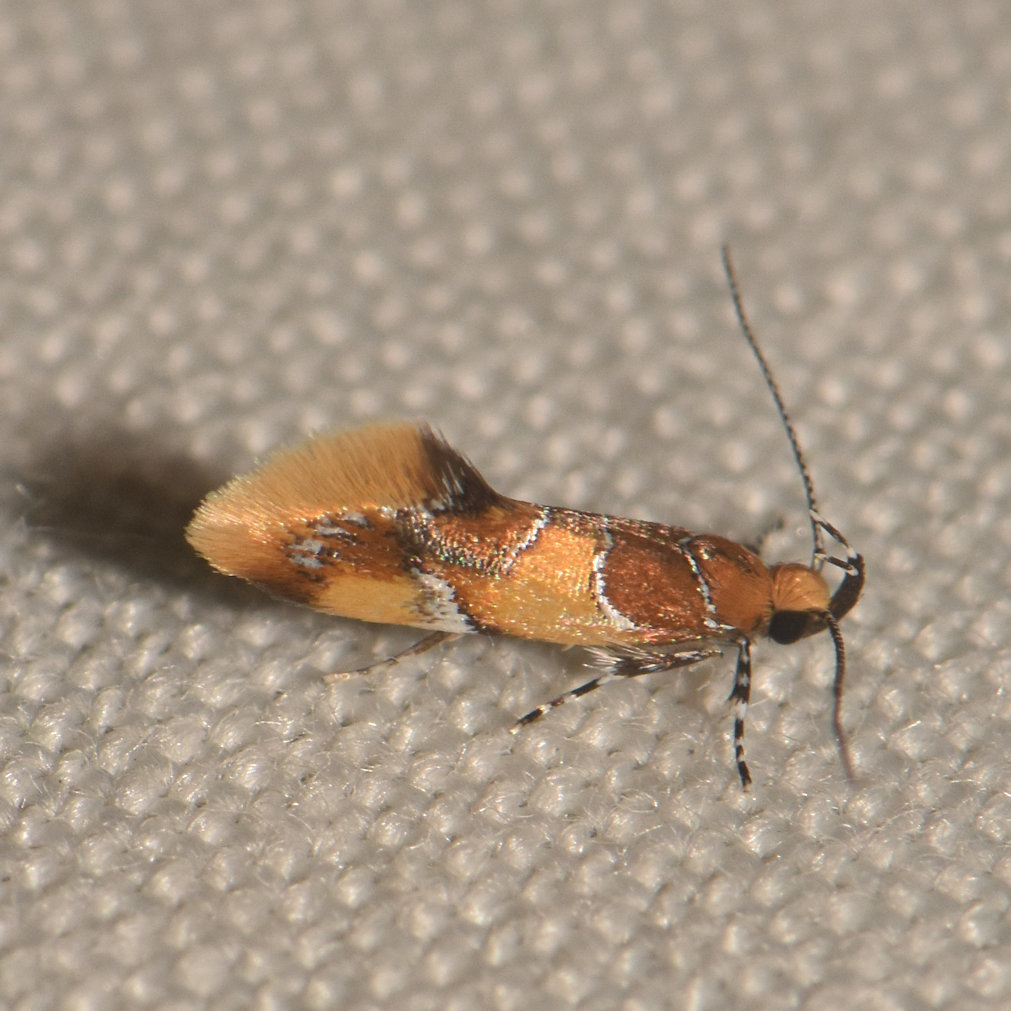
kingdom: Animalia
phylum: Arthropoda
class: Insecta
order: Lepidoptera
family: Oecophoridae
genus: Callima
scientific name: Callima argenticinctella
